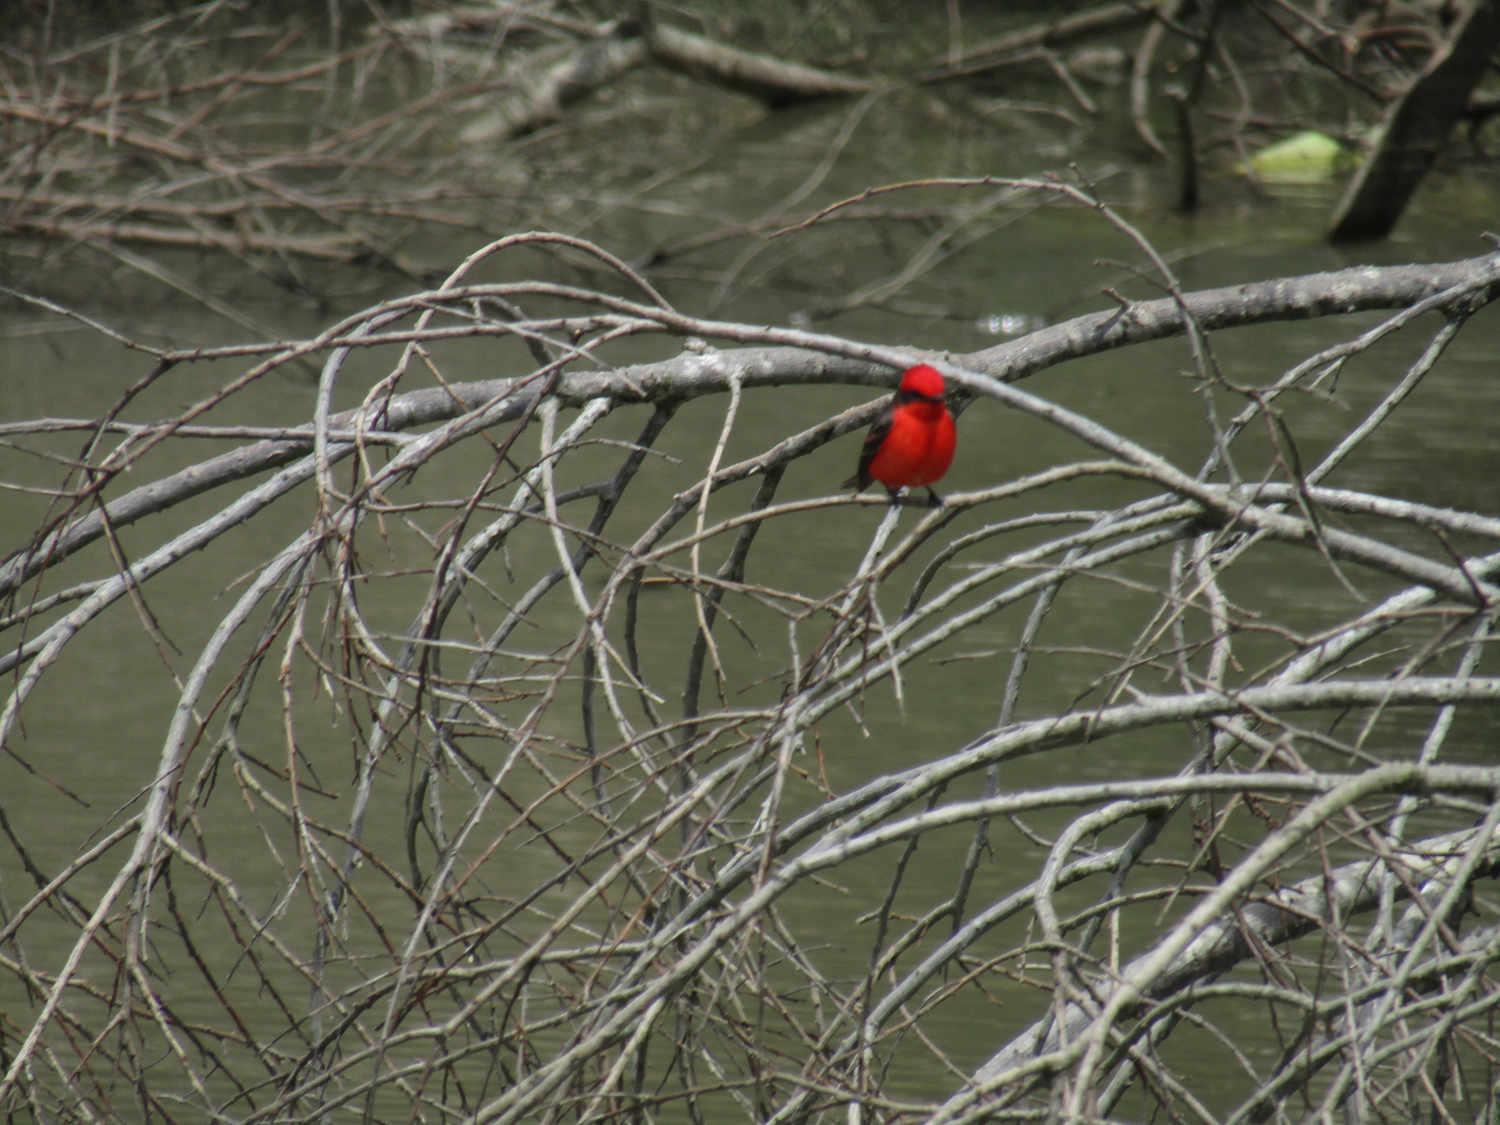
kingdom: Animalia
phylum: Chordata
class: Aves
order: Passeriformes
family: Tyrannidae
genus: Pyrocephalus
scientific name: Pyrocephalus rubinus
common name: Vermilion flycatcher
